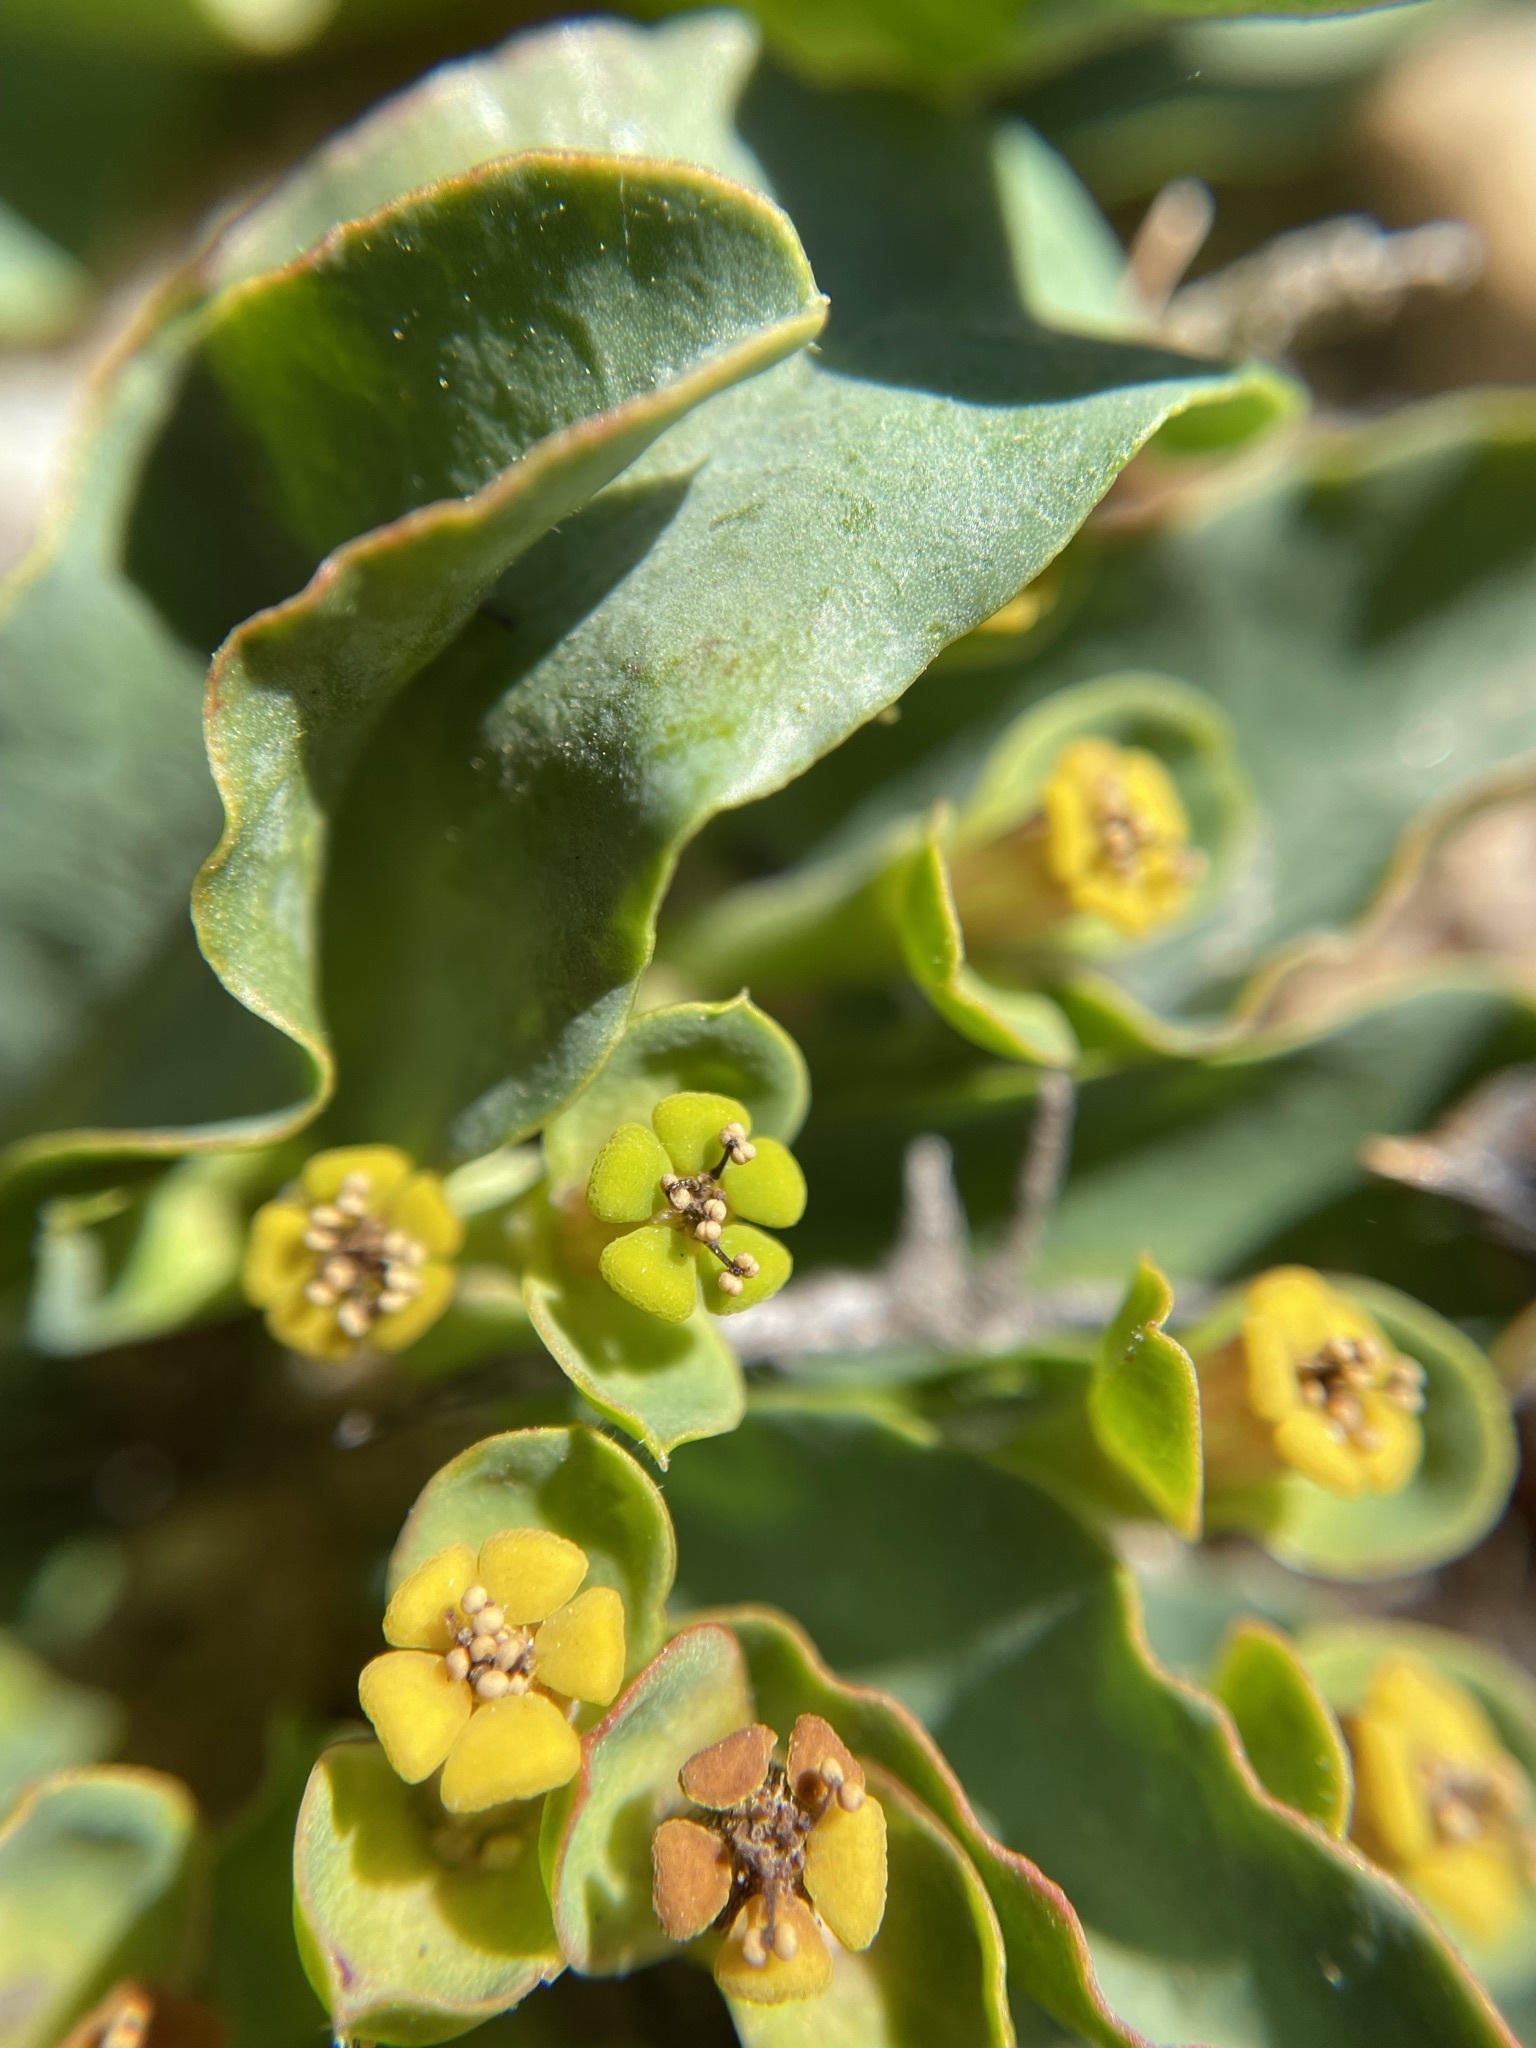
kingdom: Plantae
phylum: Tracheophyta
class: Magnoliopsida
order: Malpighiales
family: Euphorbiaceae
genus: Euphorbia
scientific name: Euphorbia tuberosa
